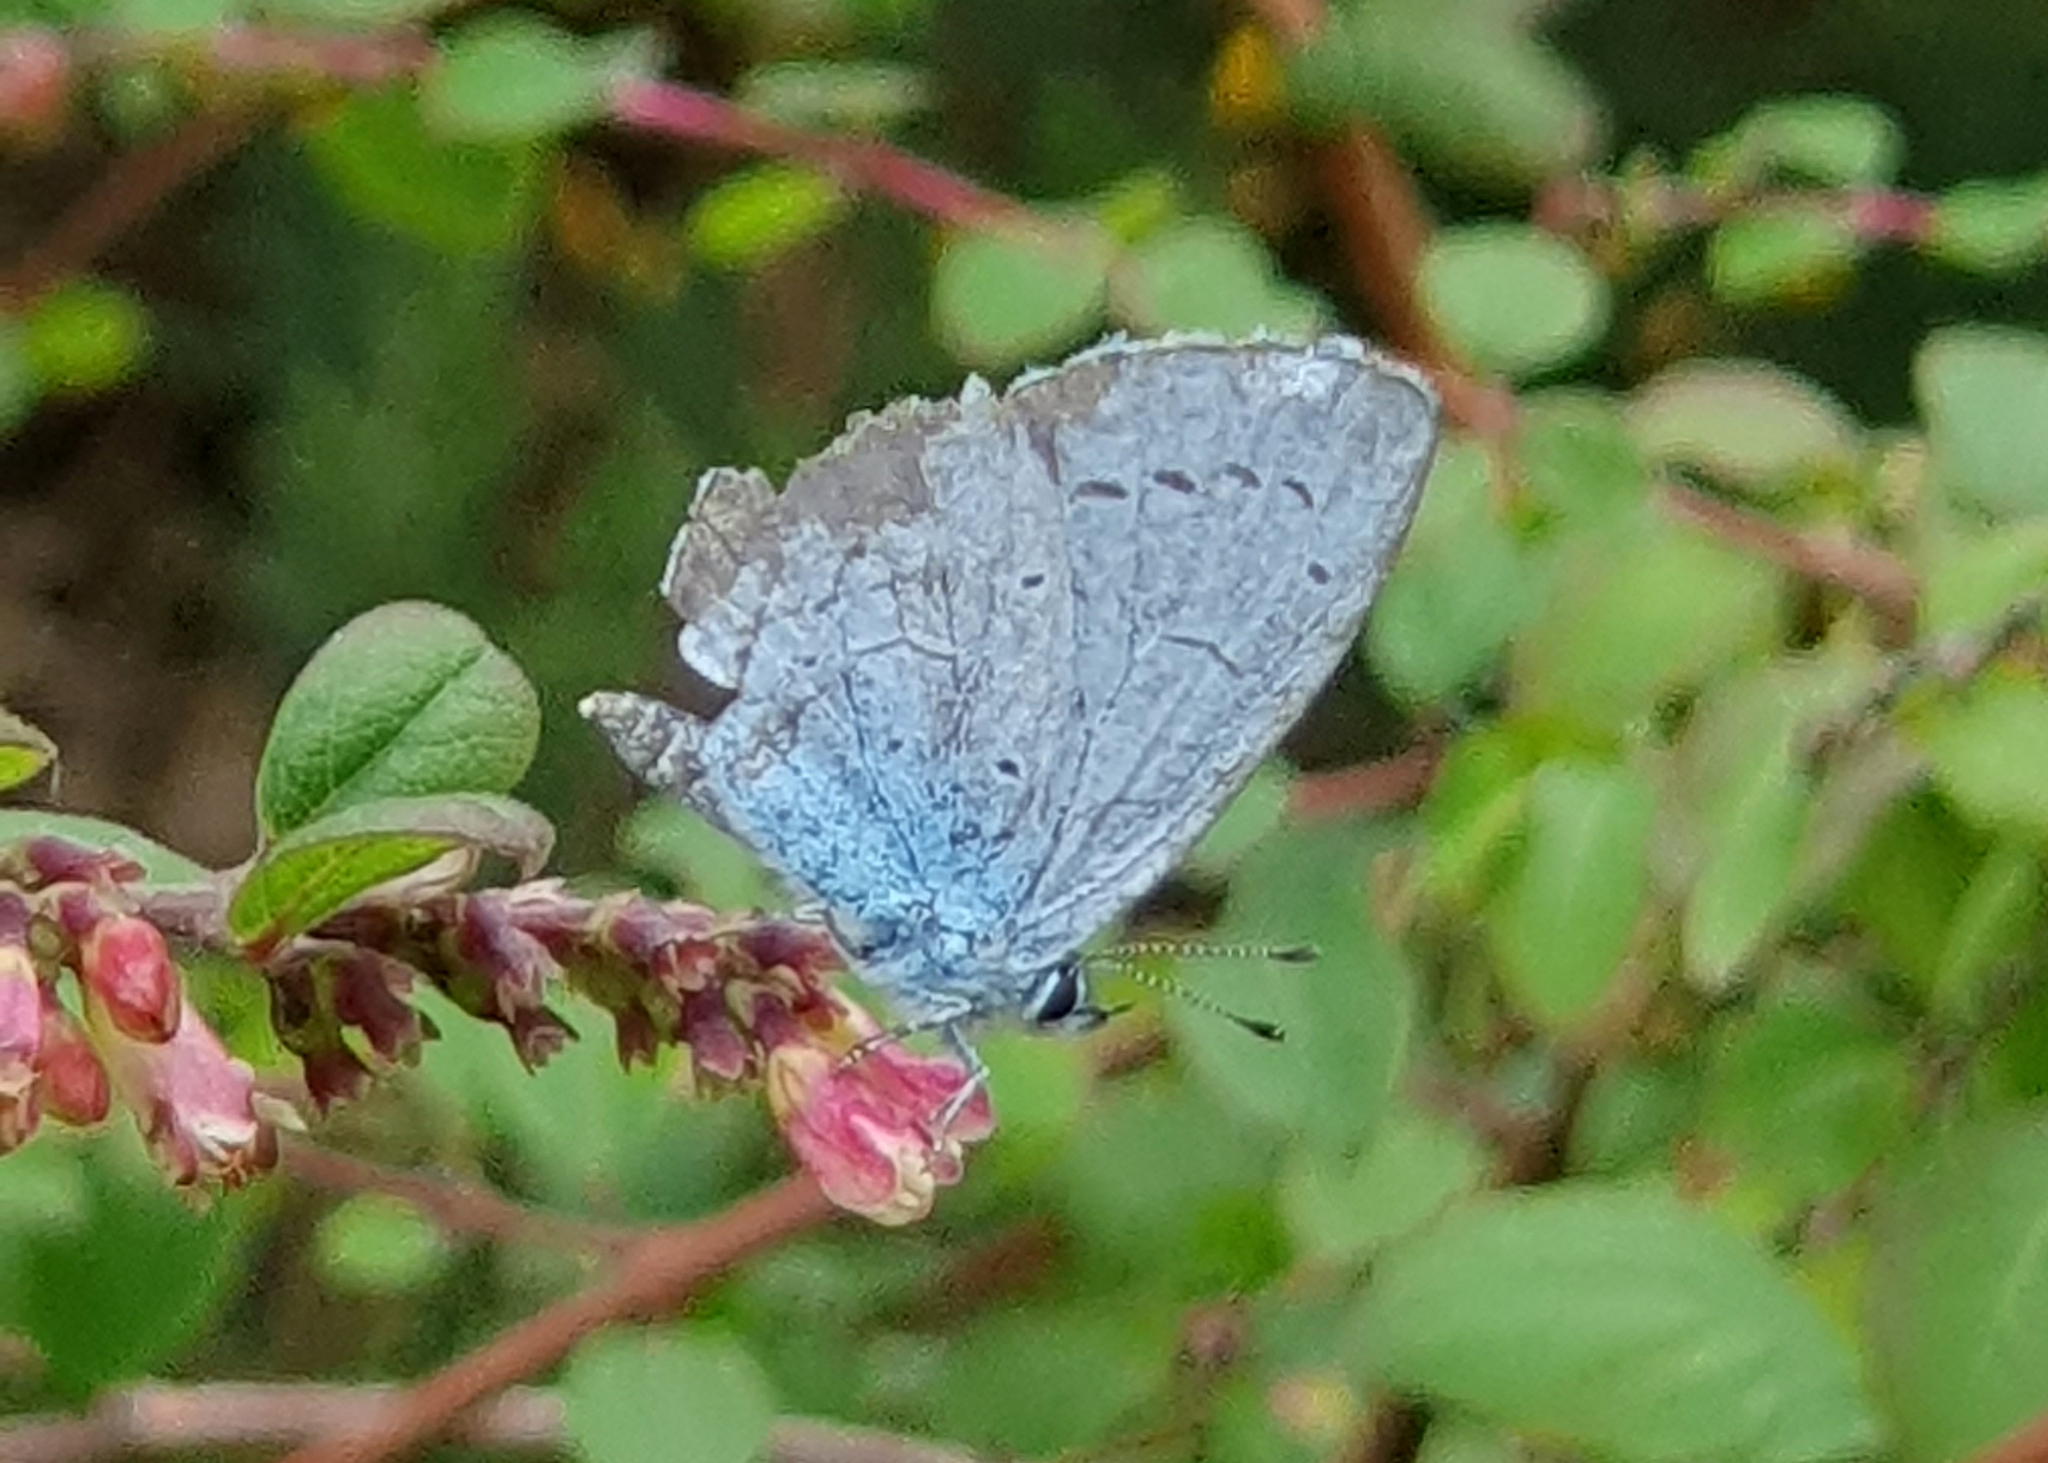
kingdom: Animalia
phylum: Arthropoda
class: Insecta
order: Lepidoptera
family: Lycaenidae
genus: Celastrina
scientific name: Celastrina argiolus
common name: Holly blue
